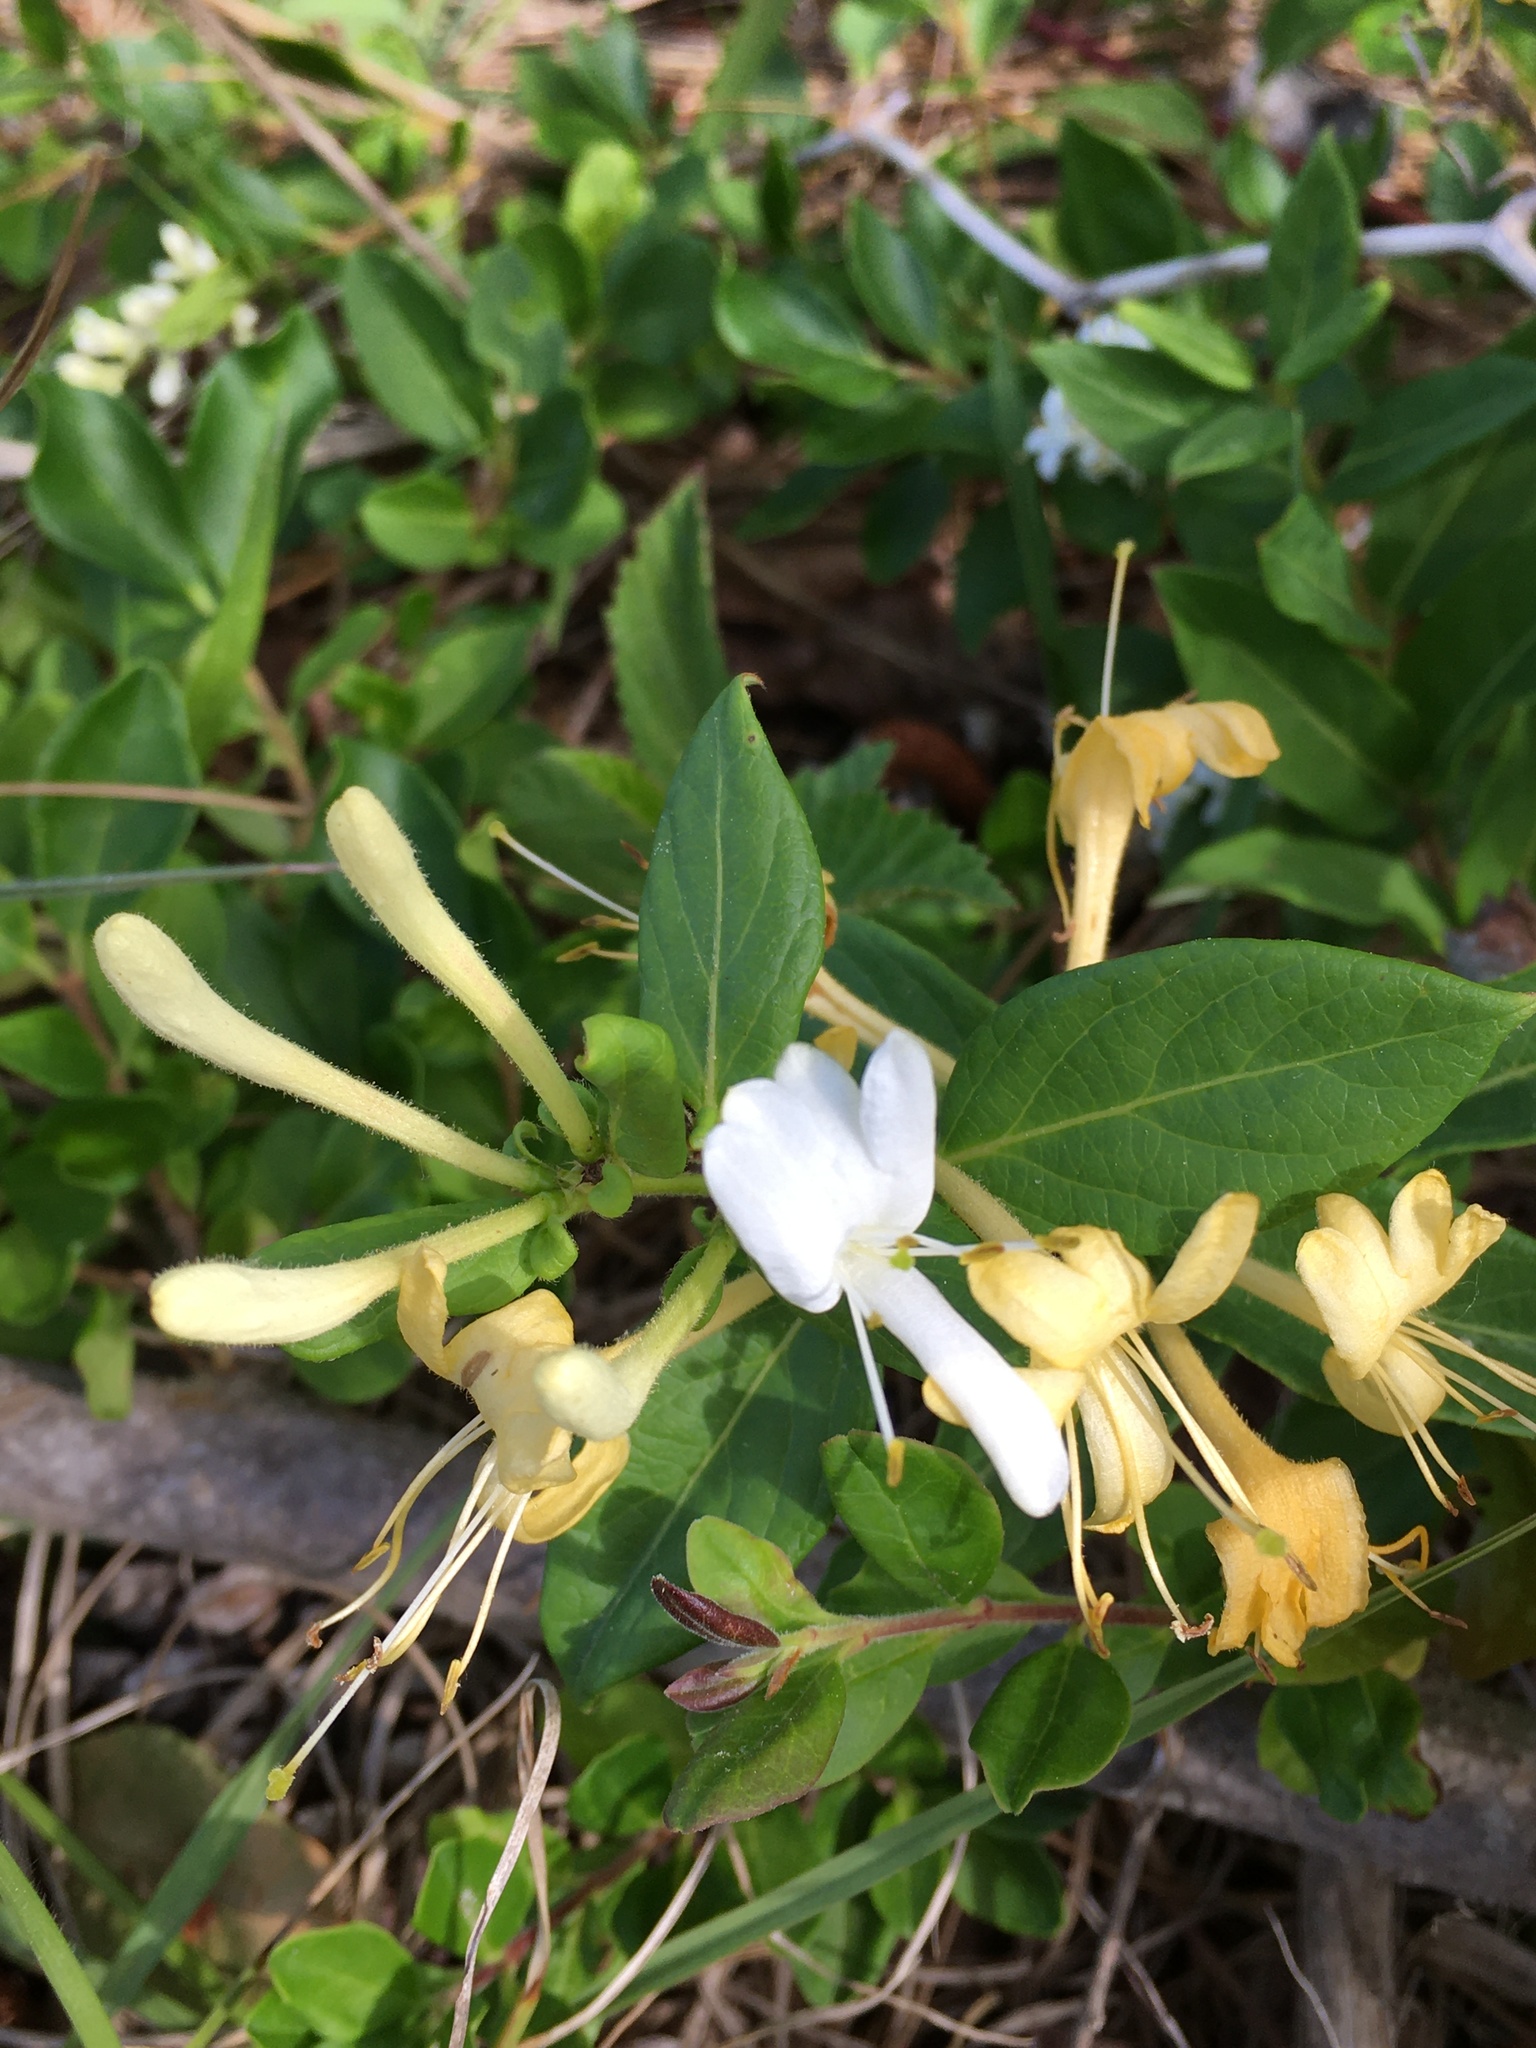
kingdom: Plantae
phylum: Tracheophyta
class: Magnoliopsida
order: Dipsacales
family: Caprifoliaceae
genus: Lonicera
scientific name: Lonicera japonica
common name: Japanese honeysuckle
